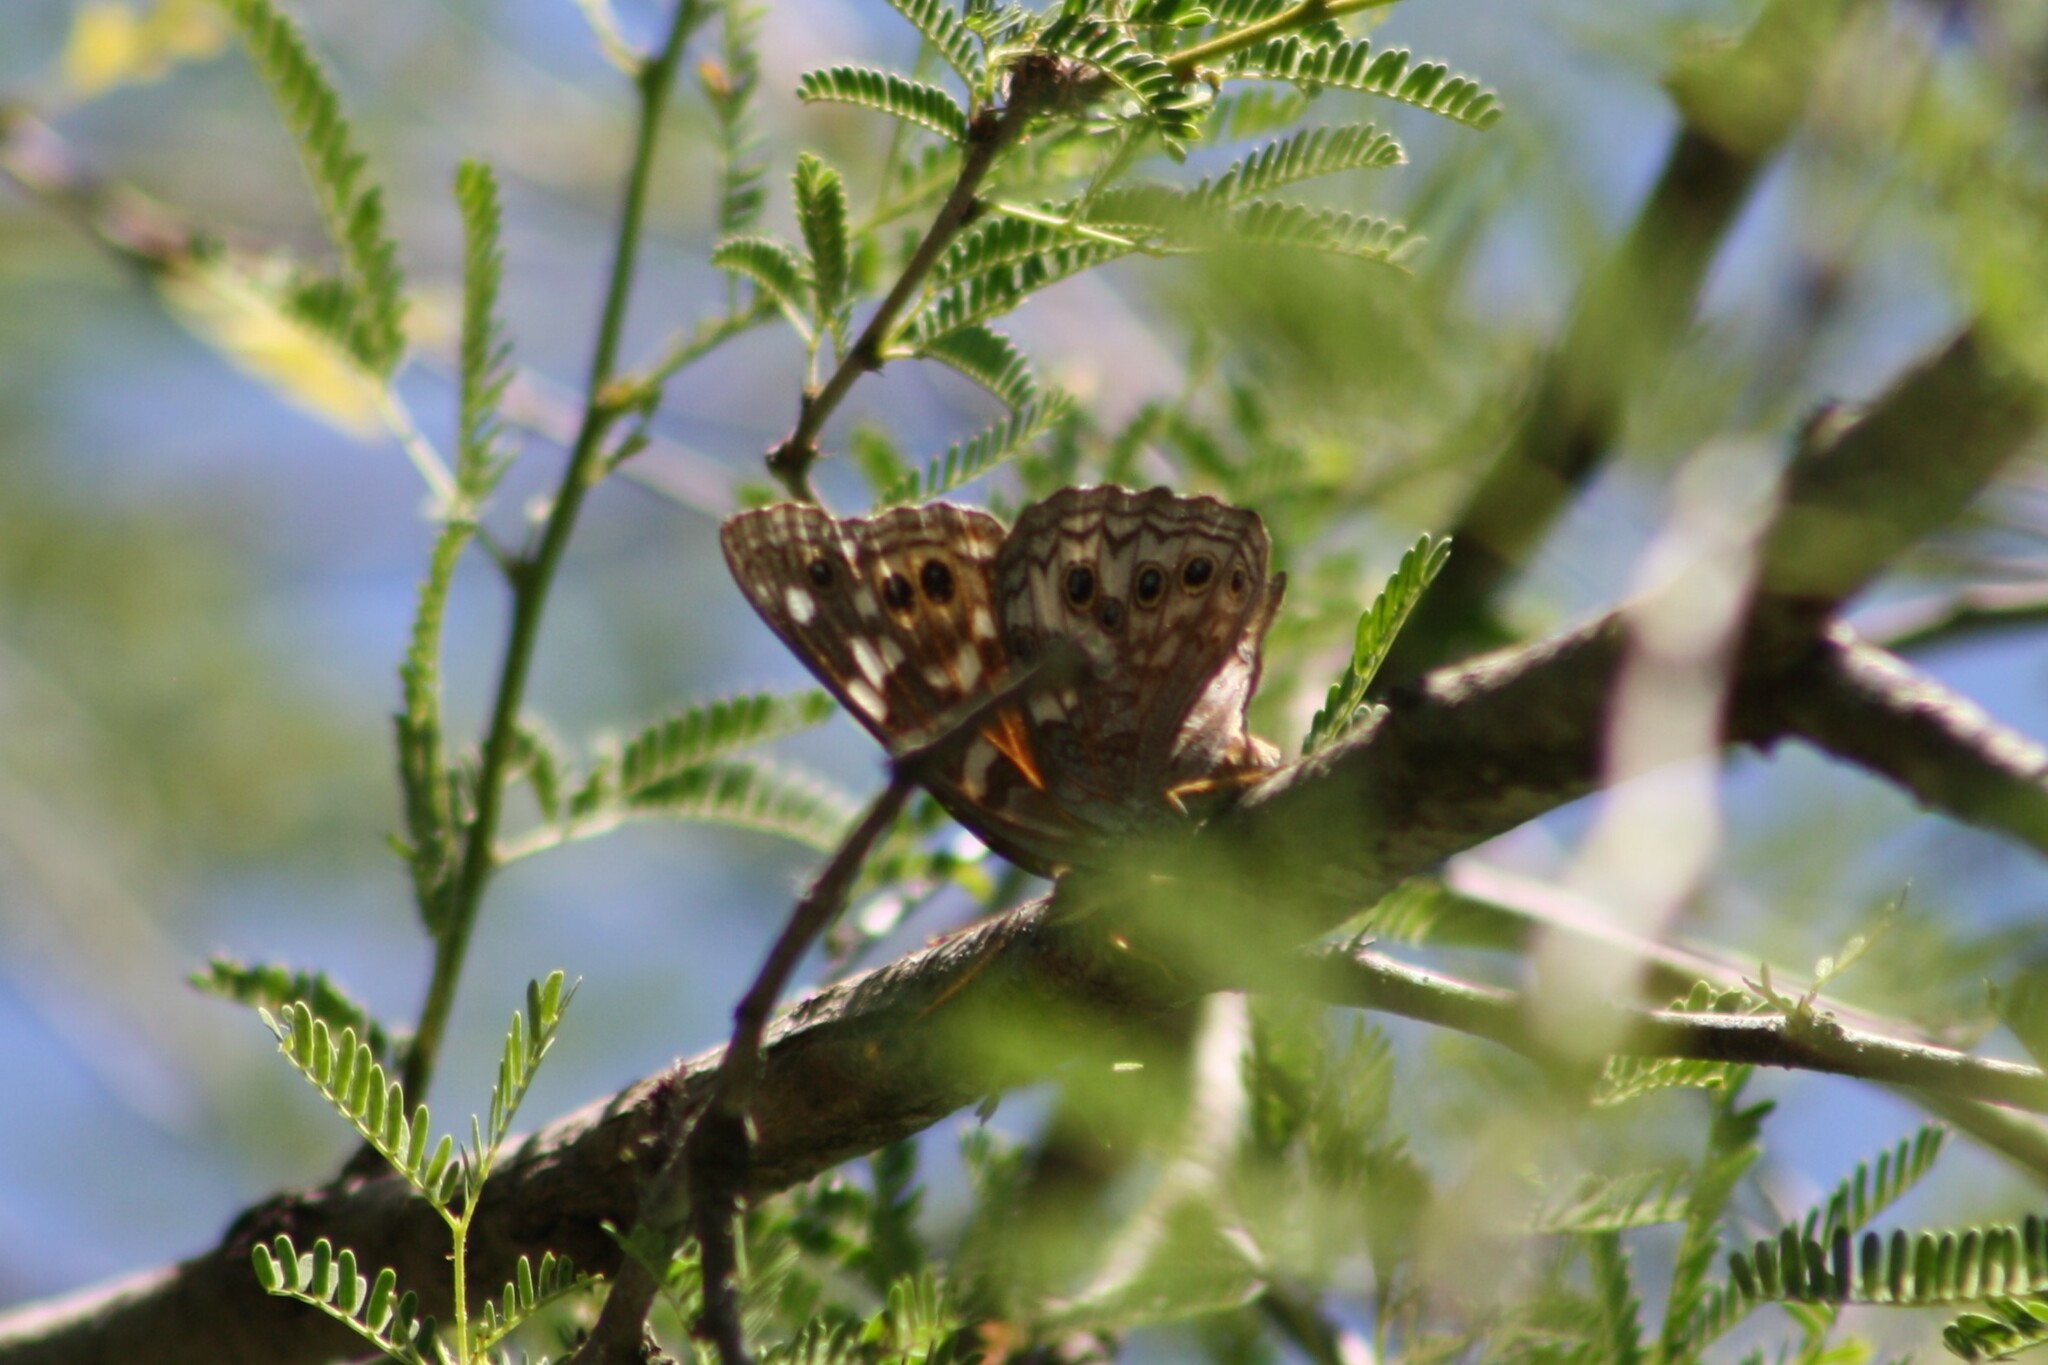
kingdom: Animalia
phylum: Arthropoda
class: Insecta
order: Lepidoptera
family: Nymphalidae
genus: Asterocampa
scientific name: Asterocampa leilia
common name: Empress leilia
